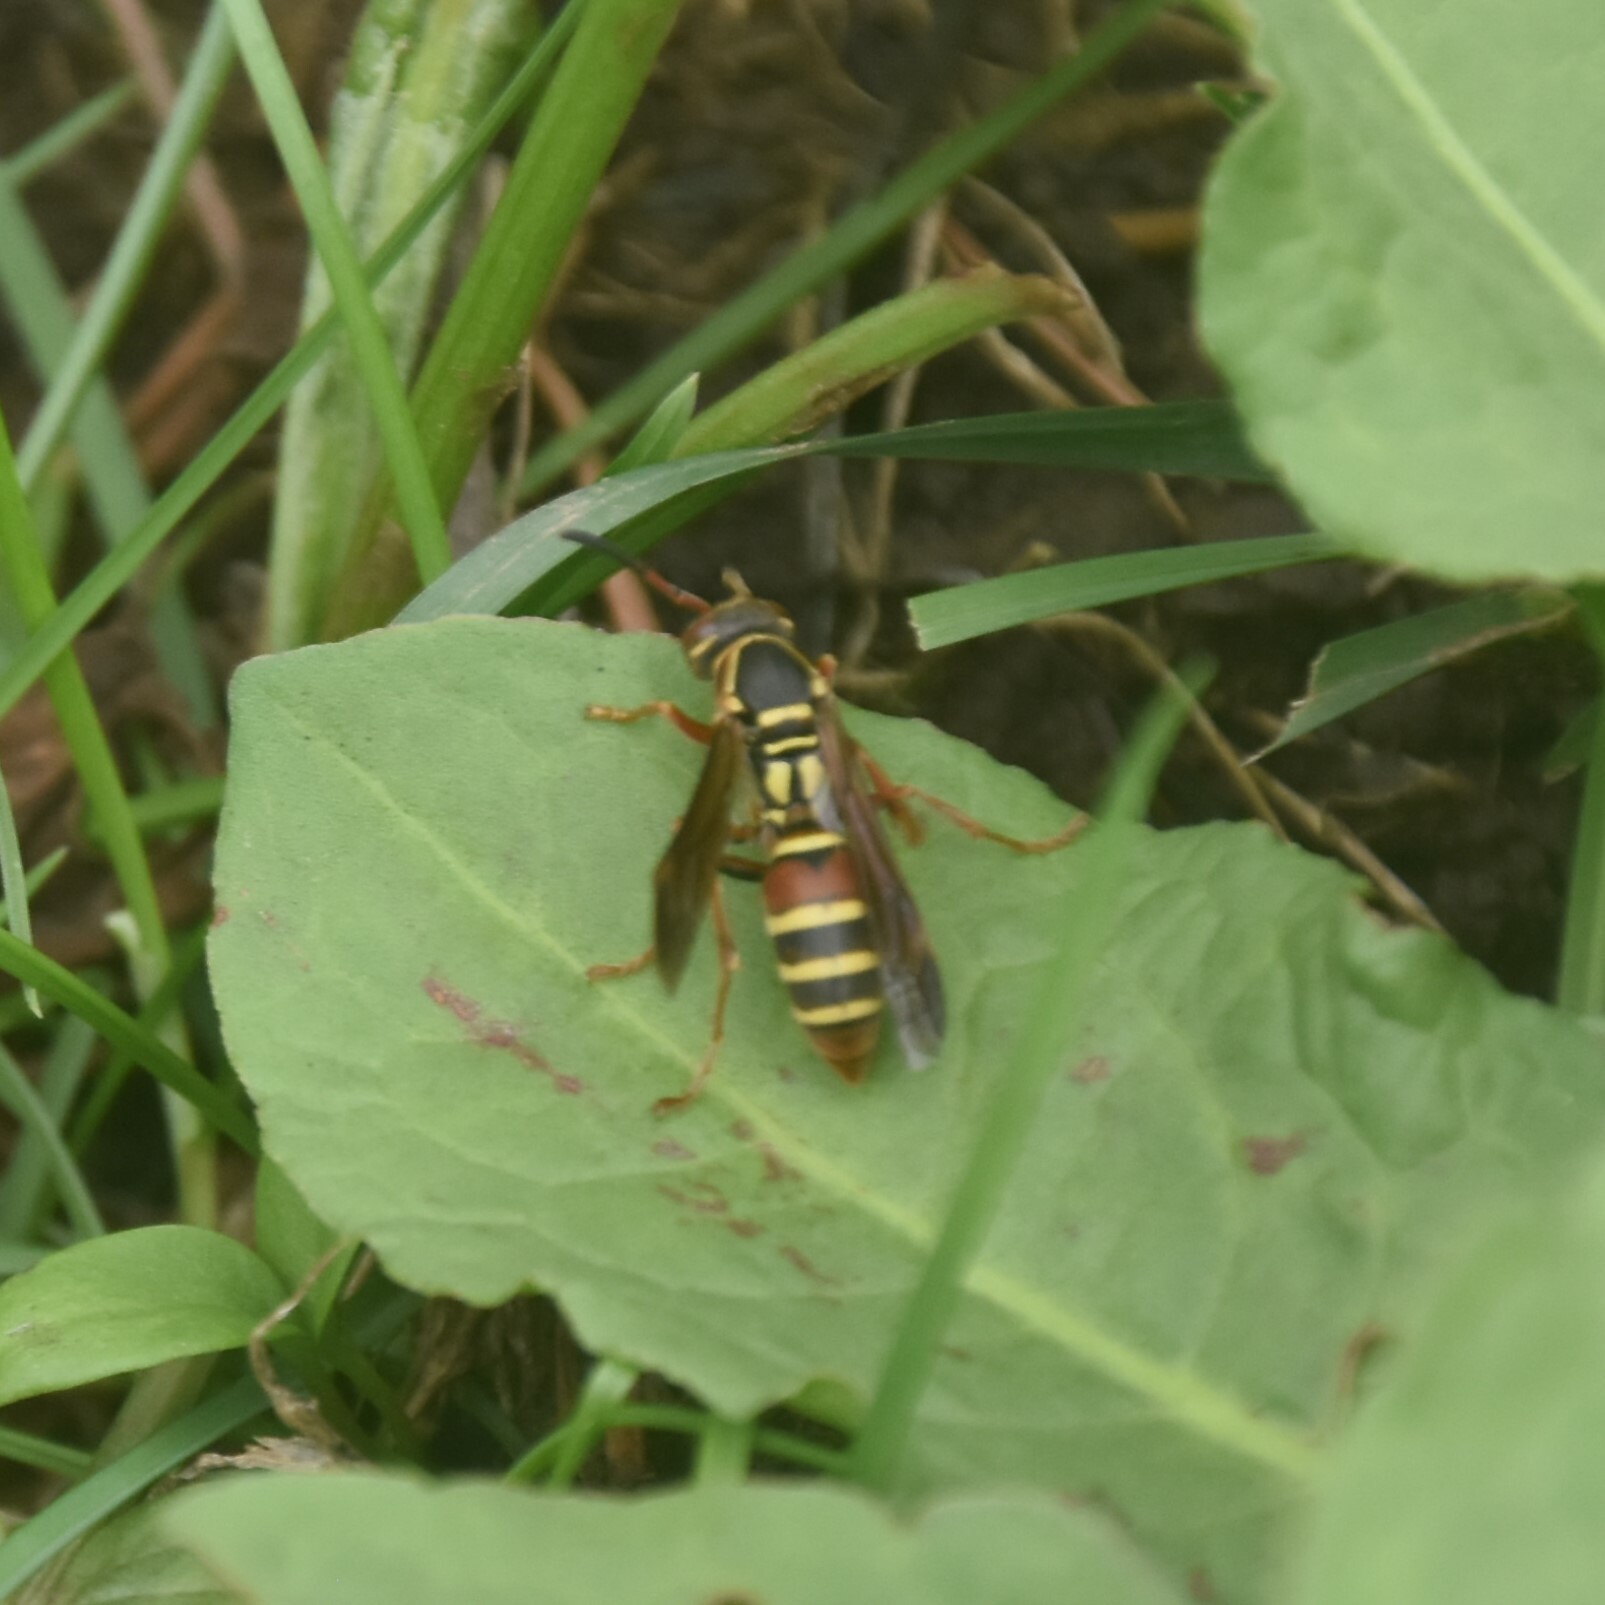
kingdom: Animalia
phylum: Arthropoda
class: Insecta
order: Hymenoptera
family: Eumenidae
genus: Knemodynerus
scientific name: Knemodynerus multimaculatus
